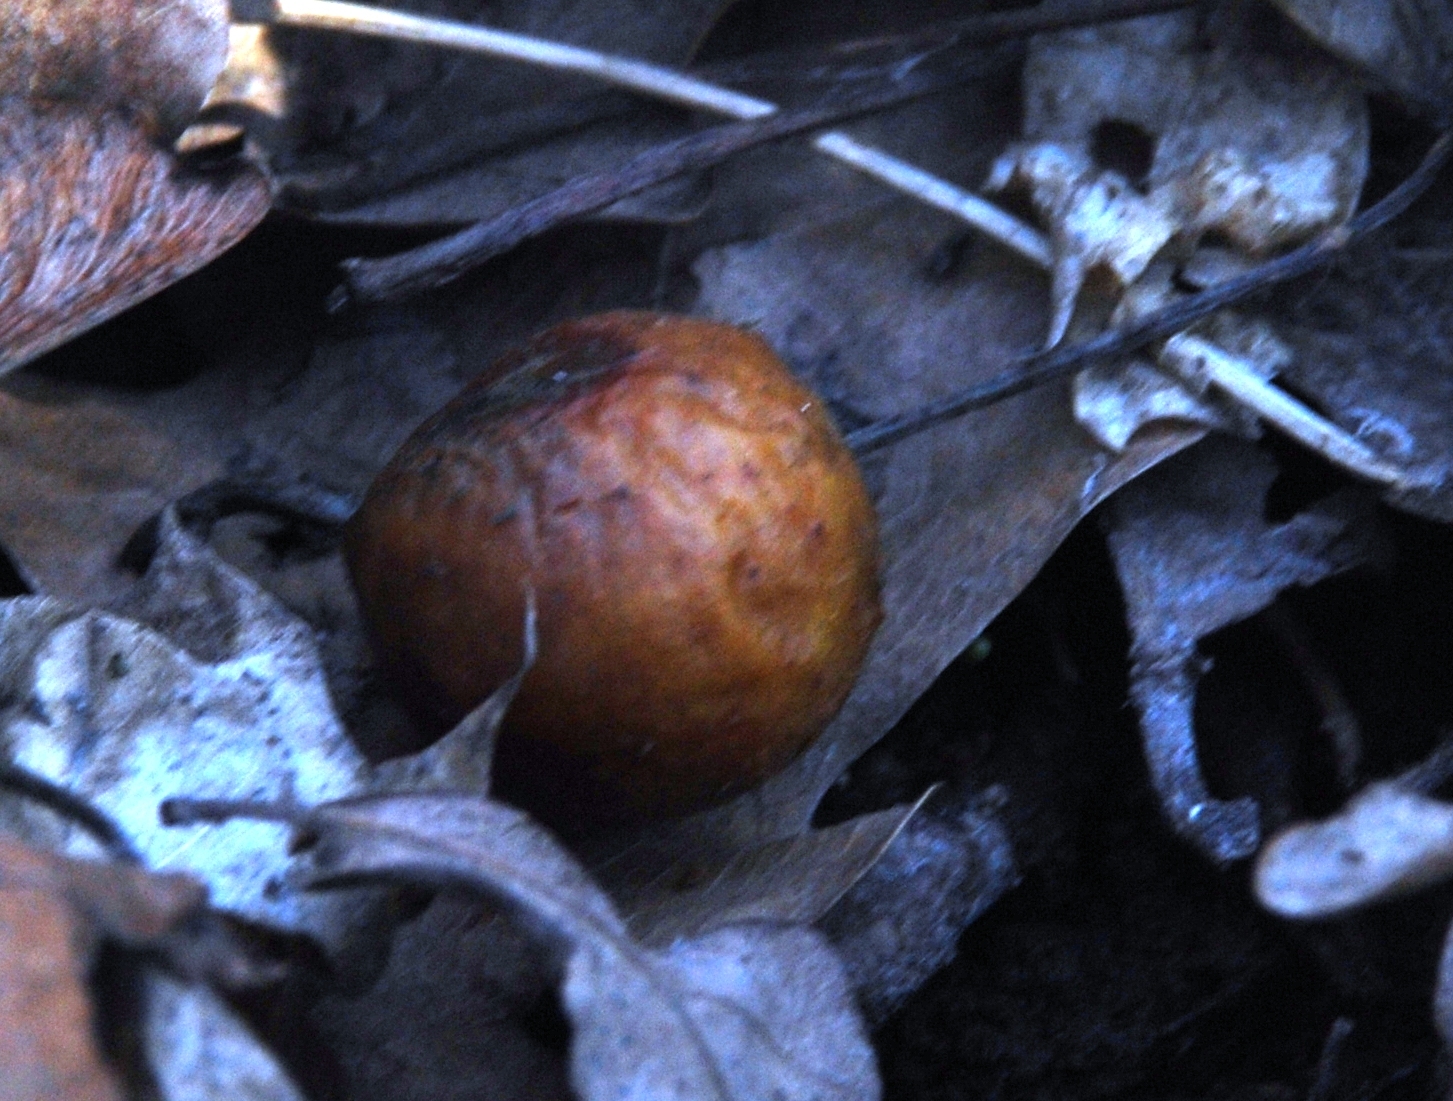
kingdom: Animalia
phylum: Arthropoda
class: Insecta
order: Hymenoptera
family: Cynipidae
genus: Cynips
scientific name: Cynips quercusfolii
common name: Cherry gall
